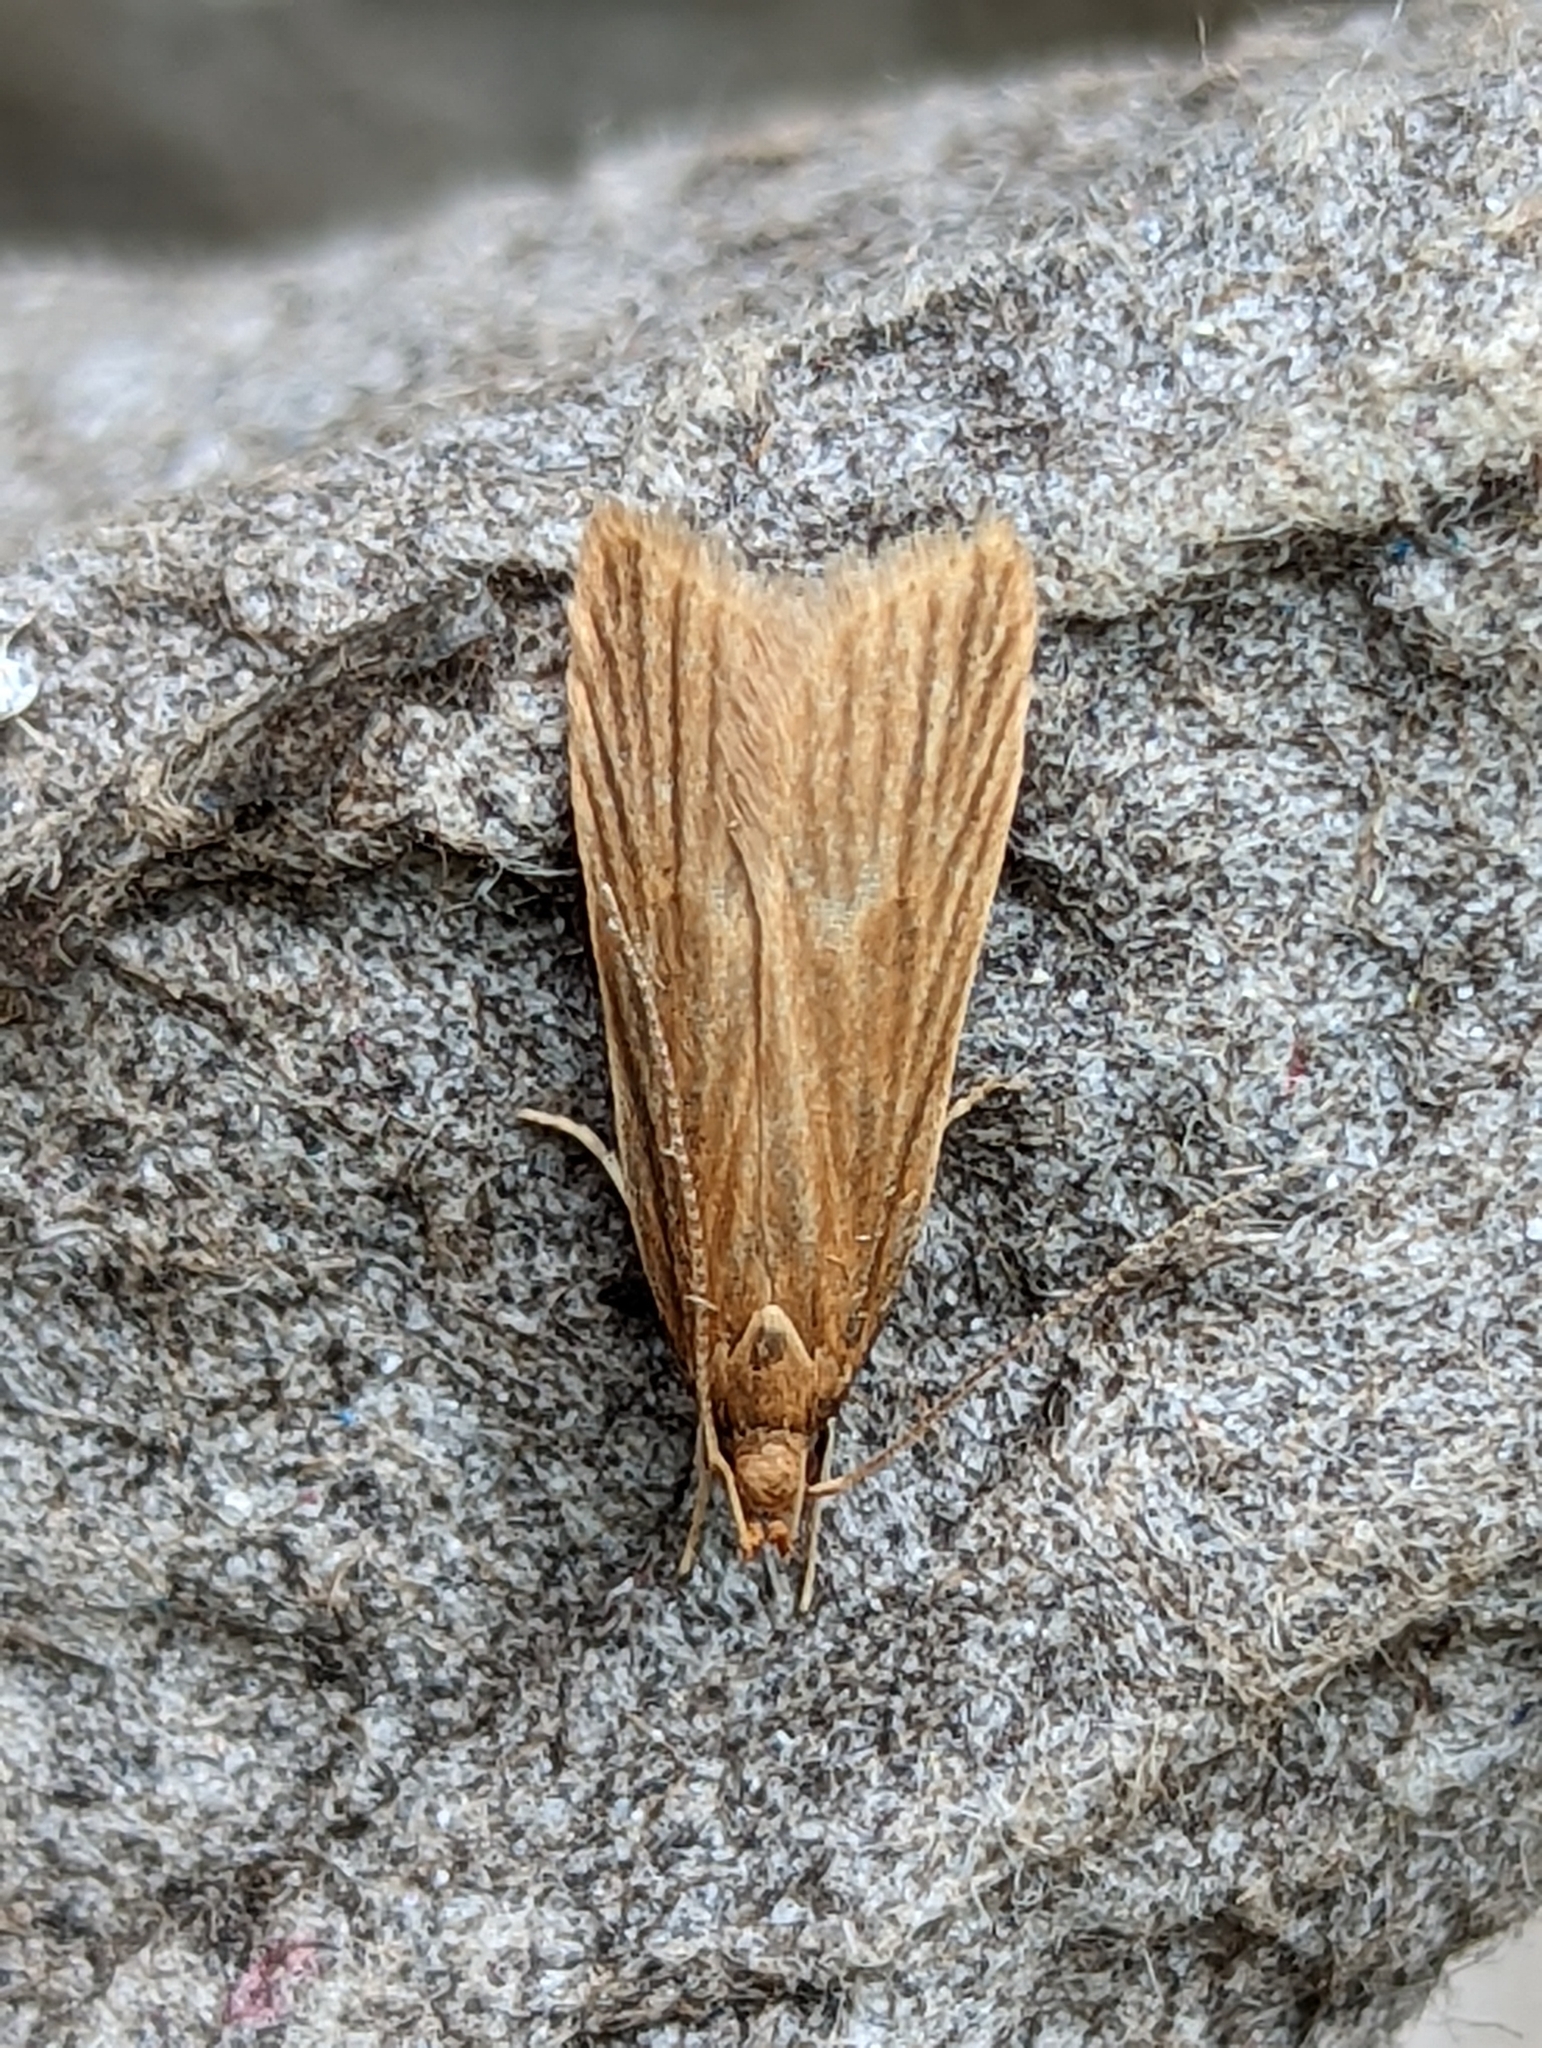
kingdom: Animalia
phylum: Arthropoda
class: Insecta
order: Lepidoptera
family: Gelechiidae
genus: Helcystogramma
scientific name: Helcystogramma rufescens
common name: Orange crest
